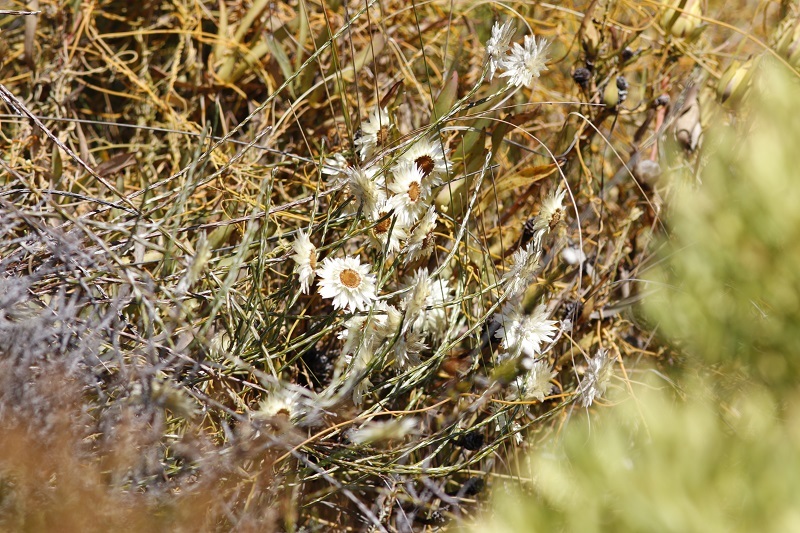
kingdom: Plantae
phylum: Tracheophyta
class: Magnoliopsida
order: Asterales
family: Asteraceae
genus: Syncarpha
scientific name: Syncarpha speciosissima
